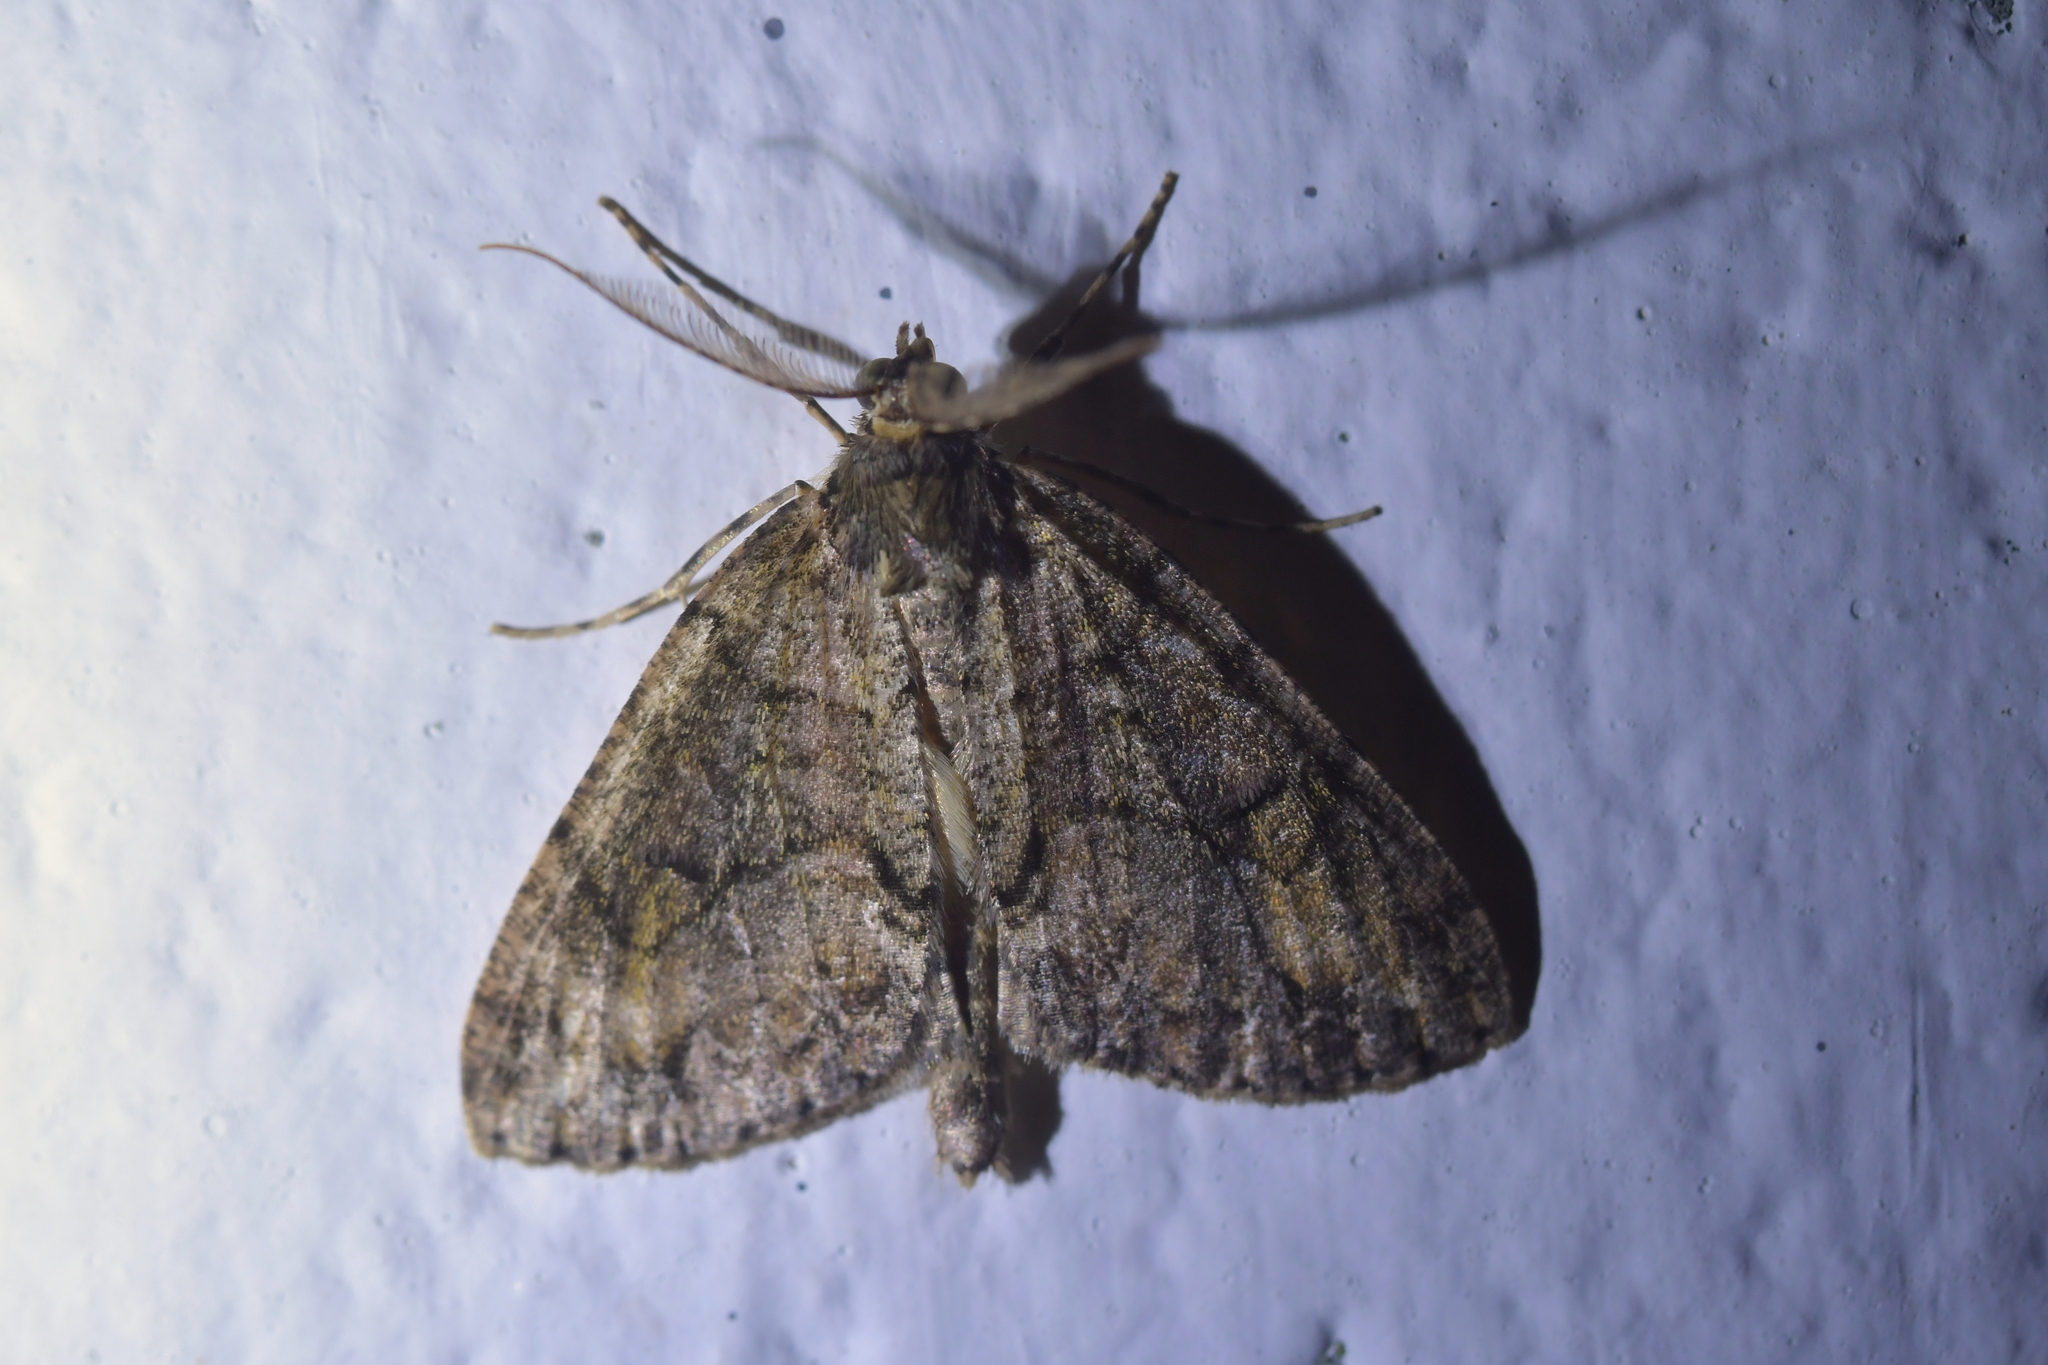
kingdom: Animalia
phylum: Arthropoda
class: Insecta
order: Lepidoptera
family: Geometridae
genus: Pseudocoremia
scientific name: Pseudocoremia suavis
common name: Common forest looper
